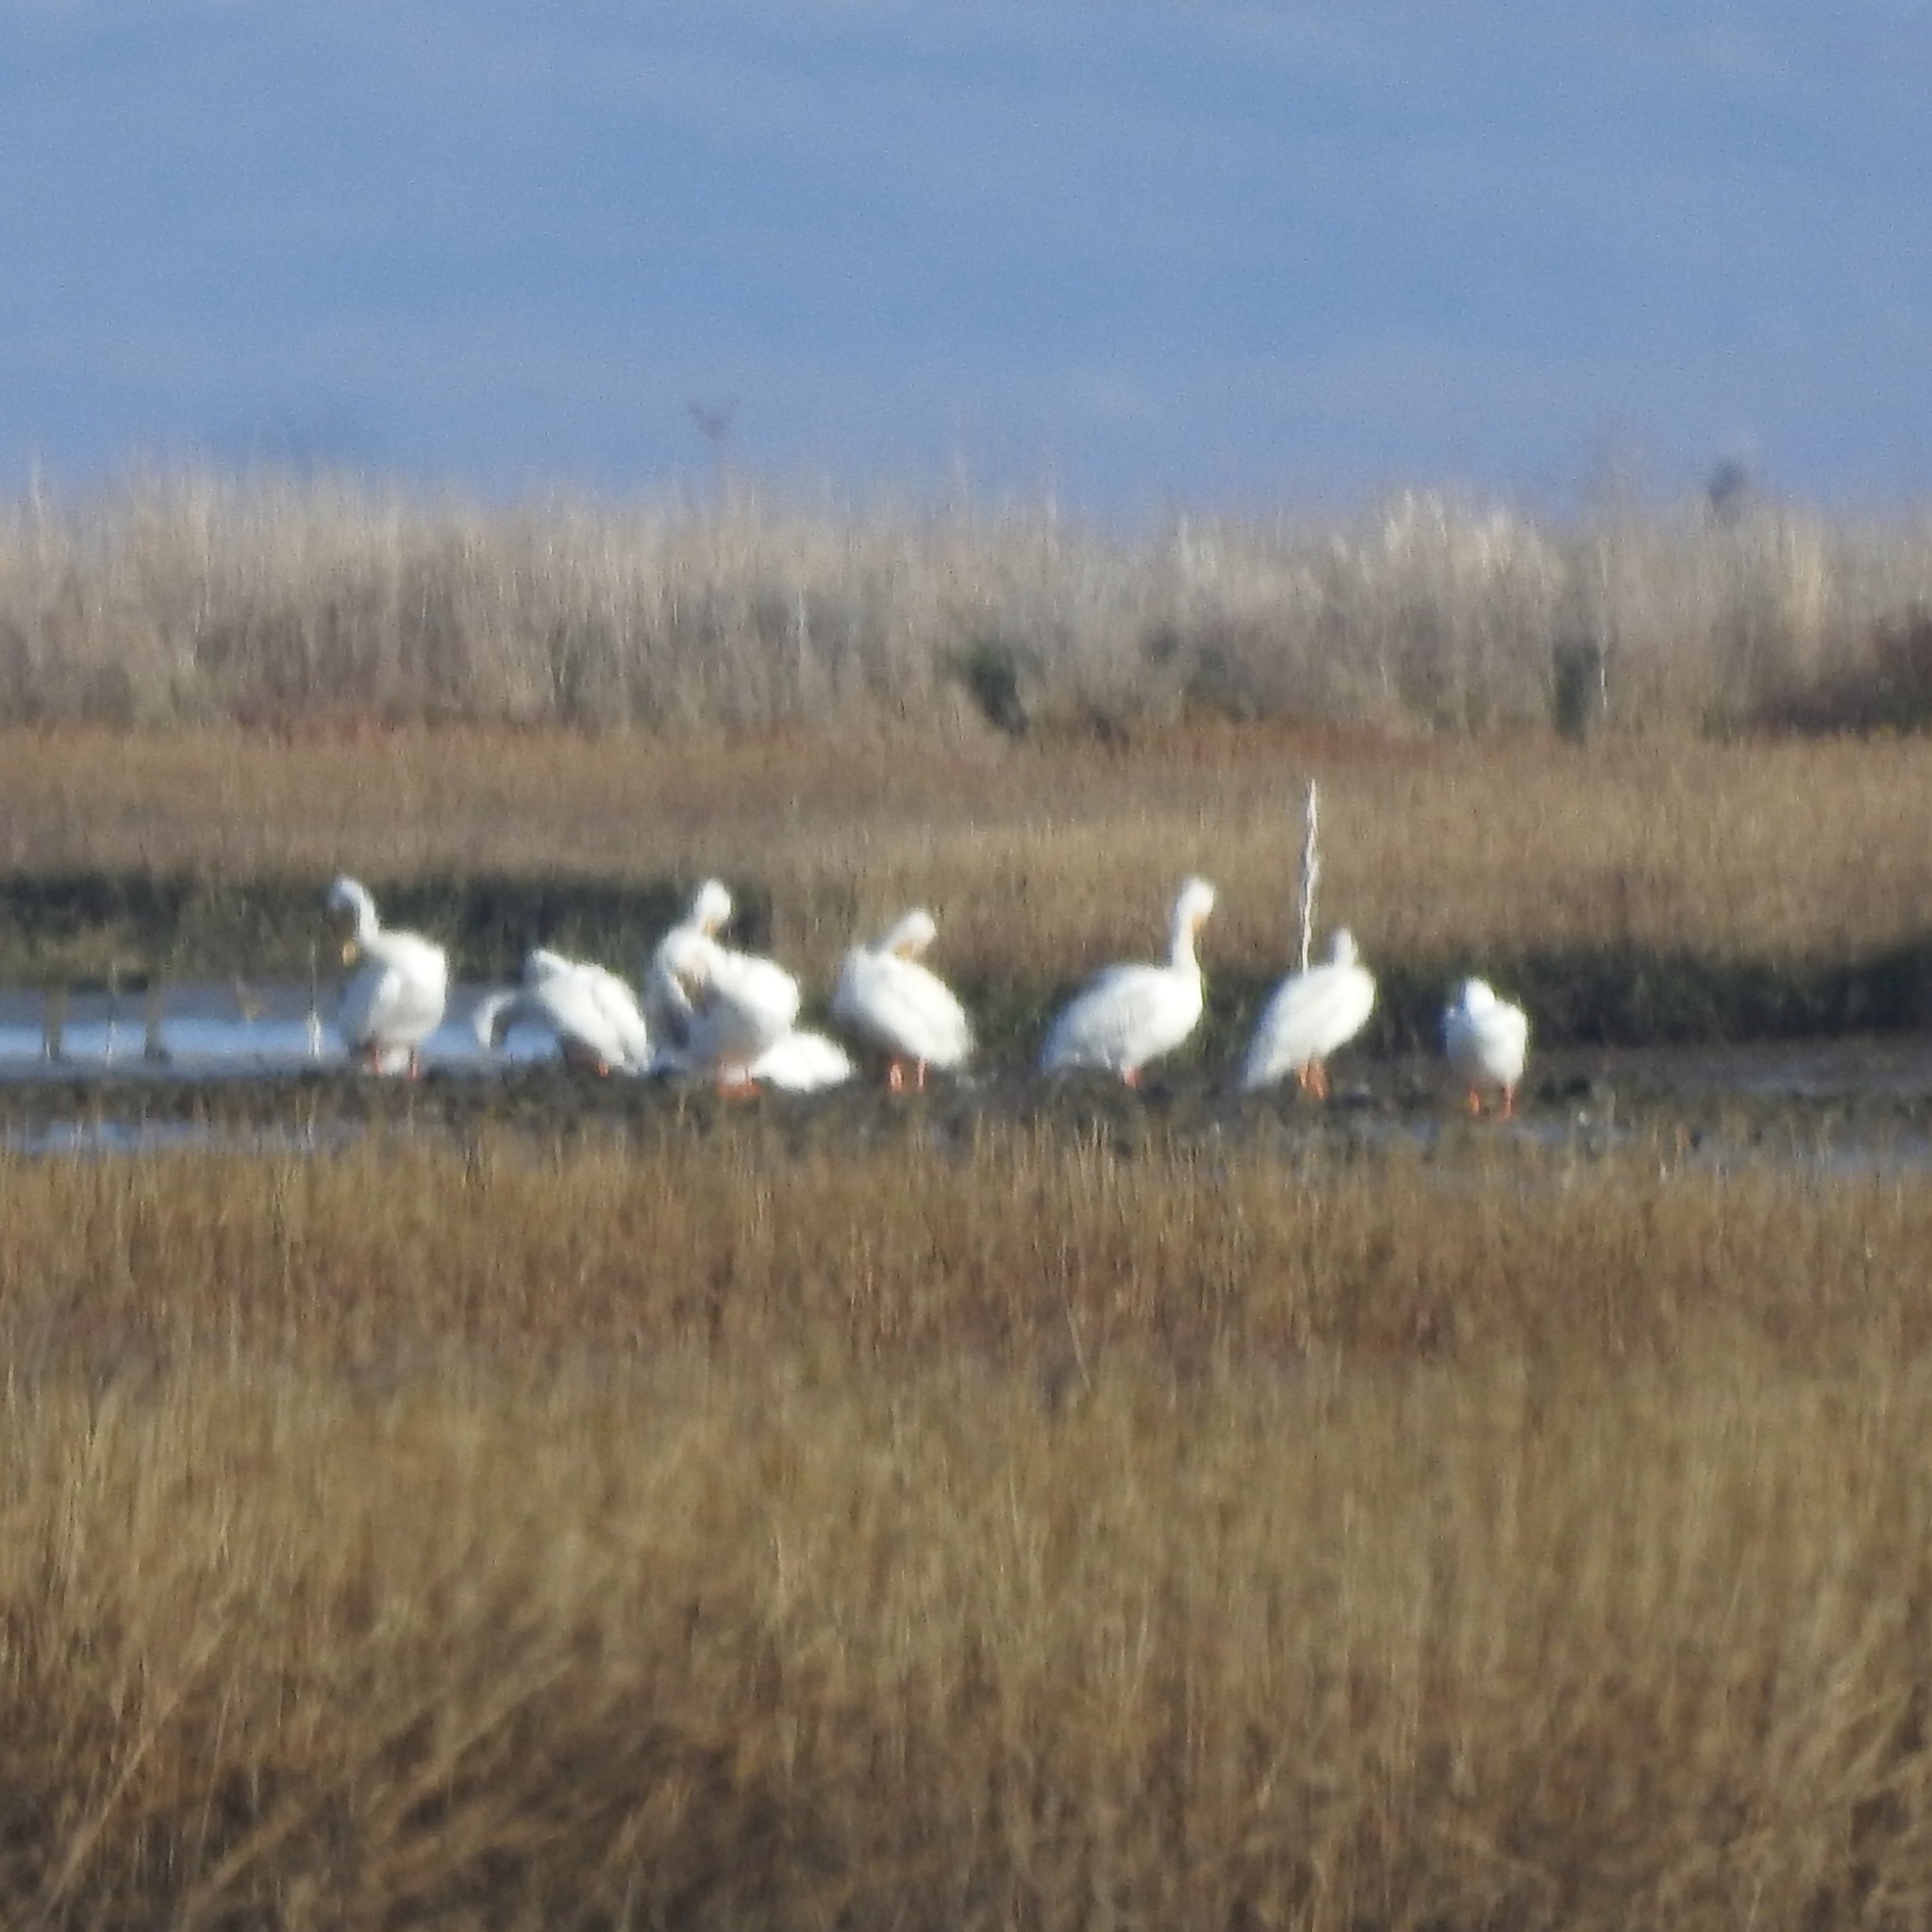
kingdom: Animalia
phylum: Chordata
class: Aves
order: Pelecaniformes
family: Pelecanidae
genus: Pelecanus
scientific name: Pelecanus erythrorhynchos
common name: American white pelican
